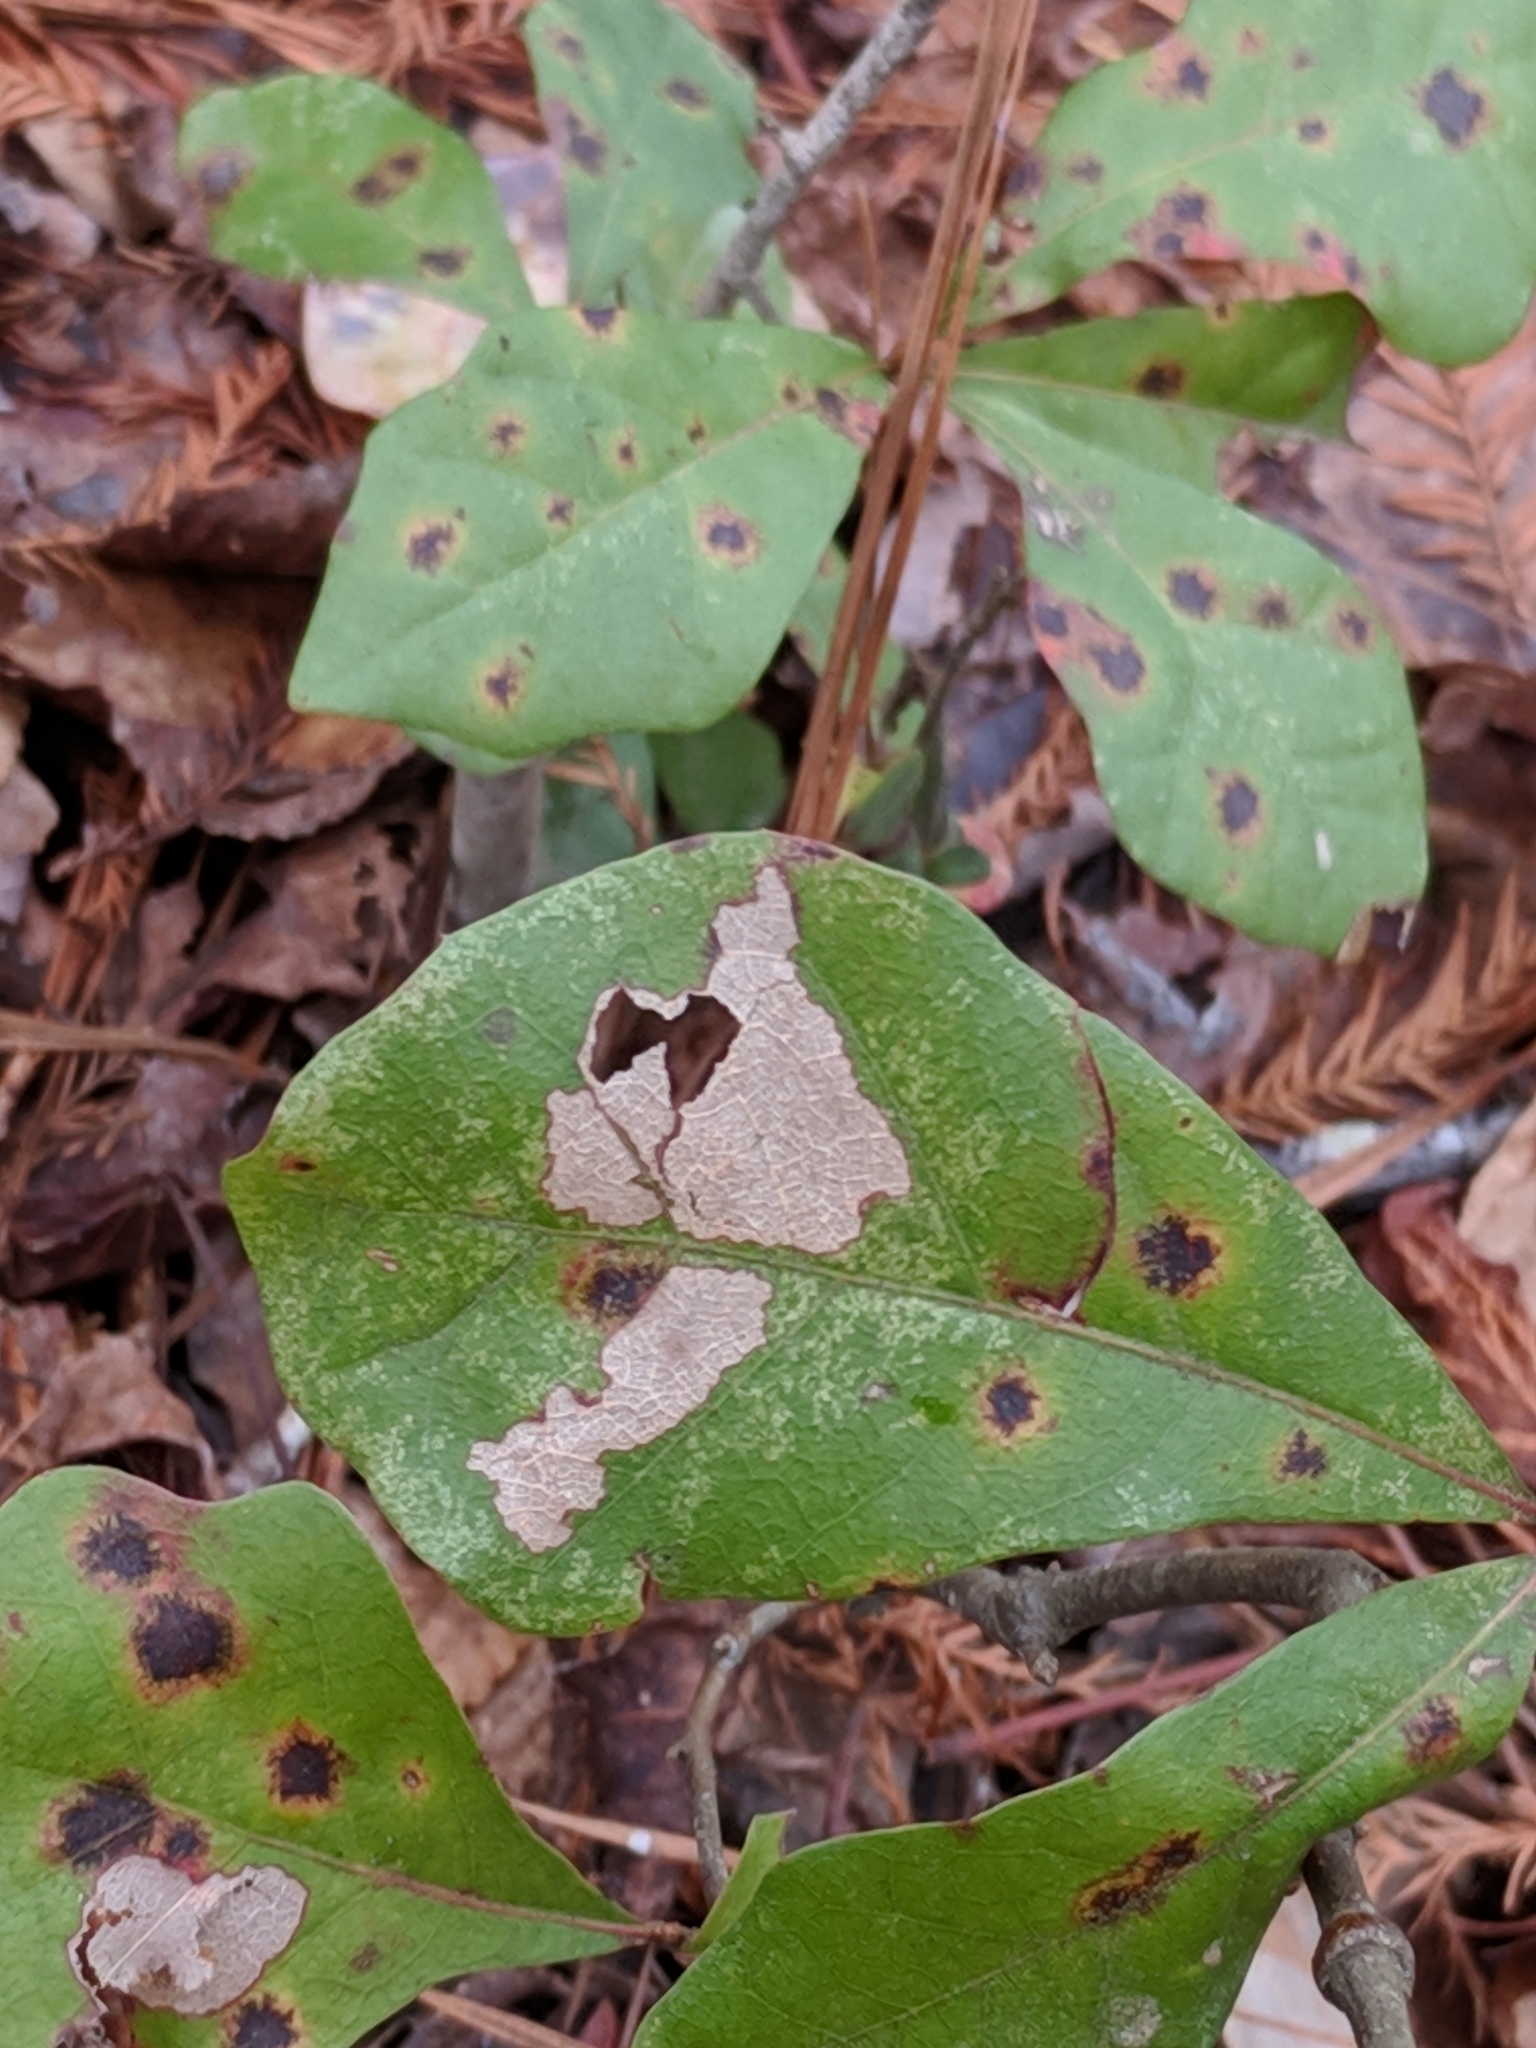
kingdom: Plantae
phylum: Tracheophyta
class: Magnoliopsida
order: Fagales
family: Fagaceae
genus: Quercus
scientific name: Quercus nigra
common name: Water oak
